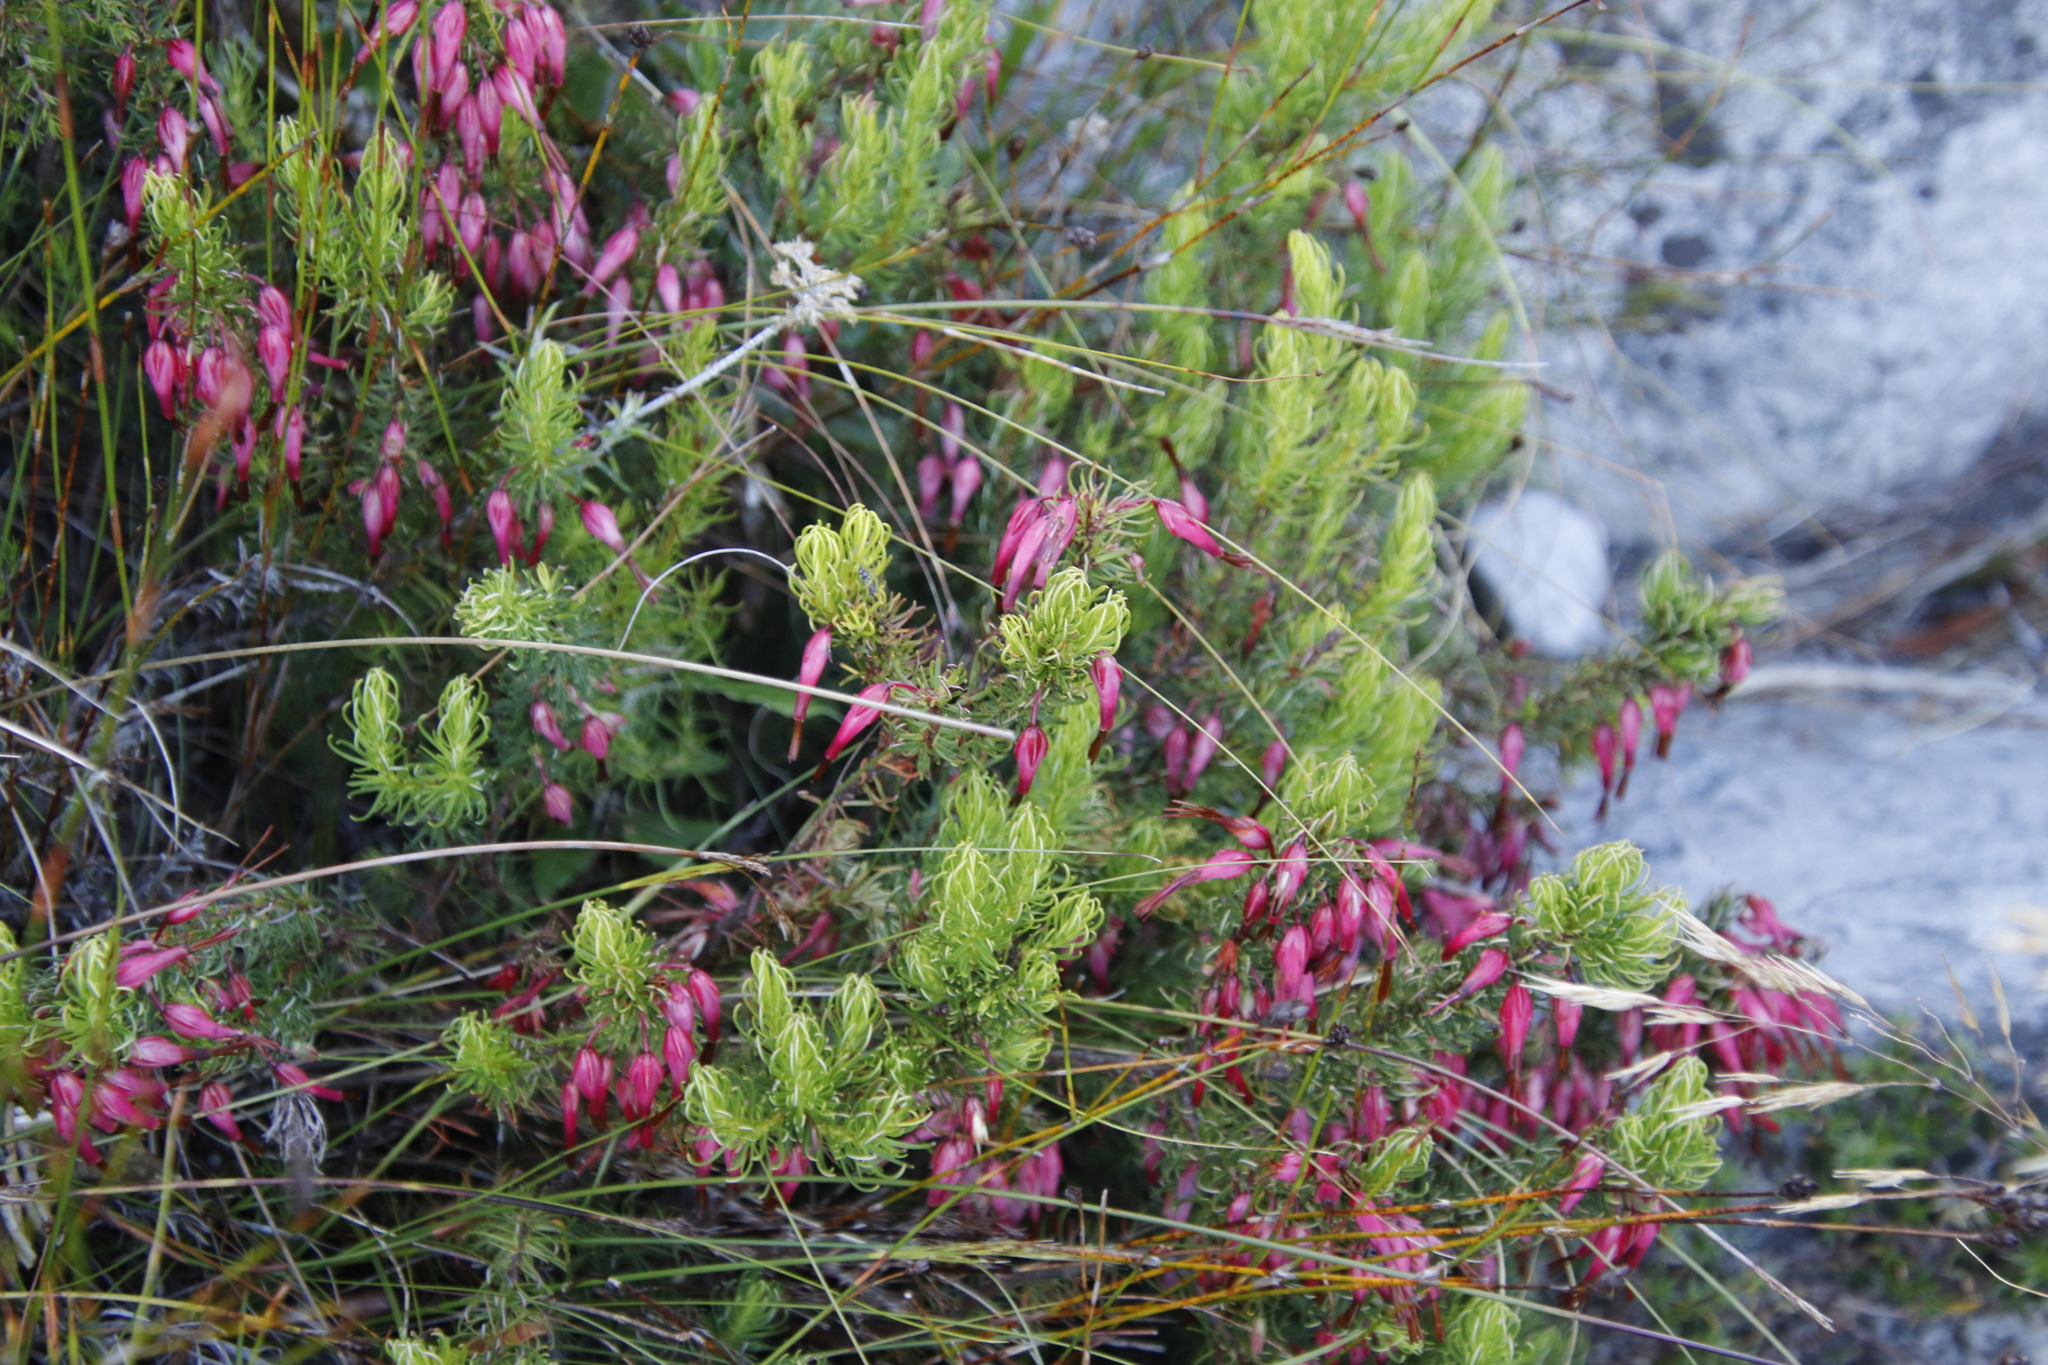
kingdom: Plantae
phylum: Tracheophyta
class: Magnoliopsida
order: Ericales
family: Ericaceae
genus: Erica
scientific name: Erica plukenetii
